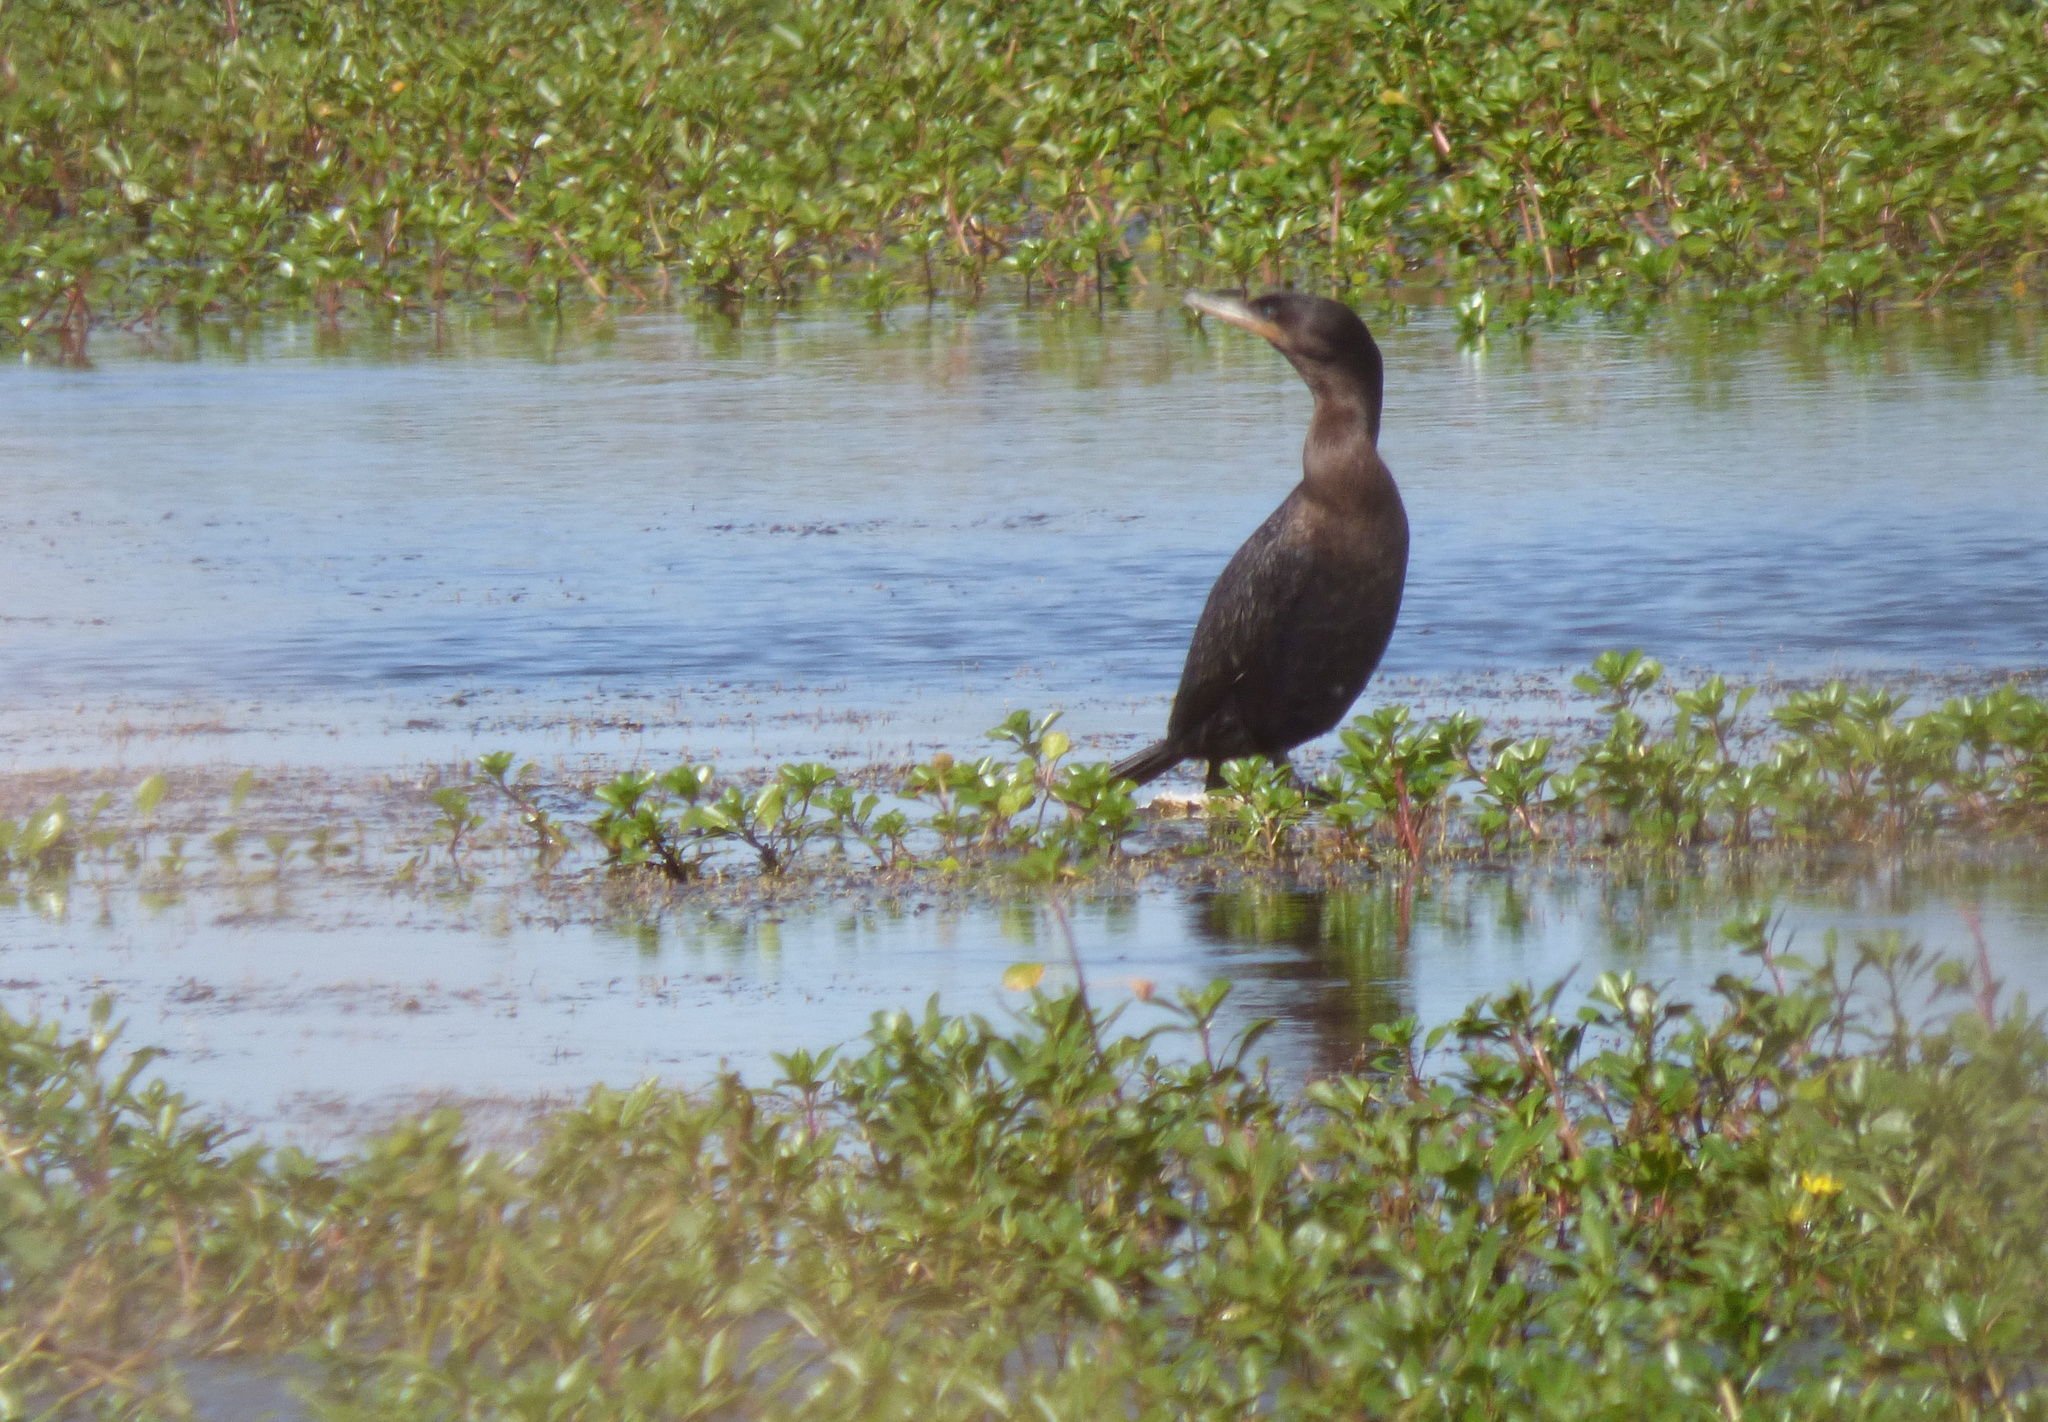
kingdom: Animalia
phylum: Chordata
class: Aves
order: Suliformes
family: Phalacrocoracidae
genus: Phalacrocorax
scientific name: Phalacrocorax brasilianus
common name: Neotropic cormorant
